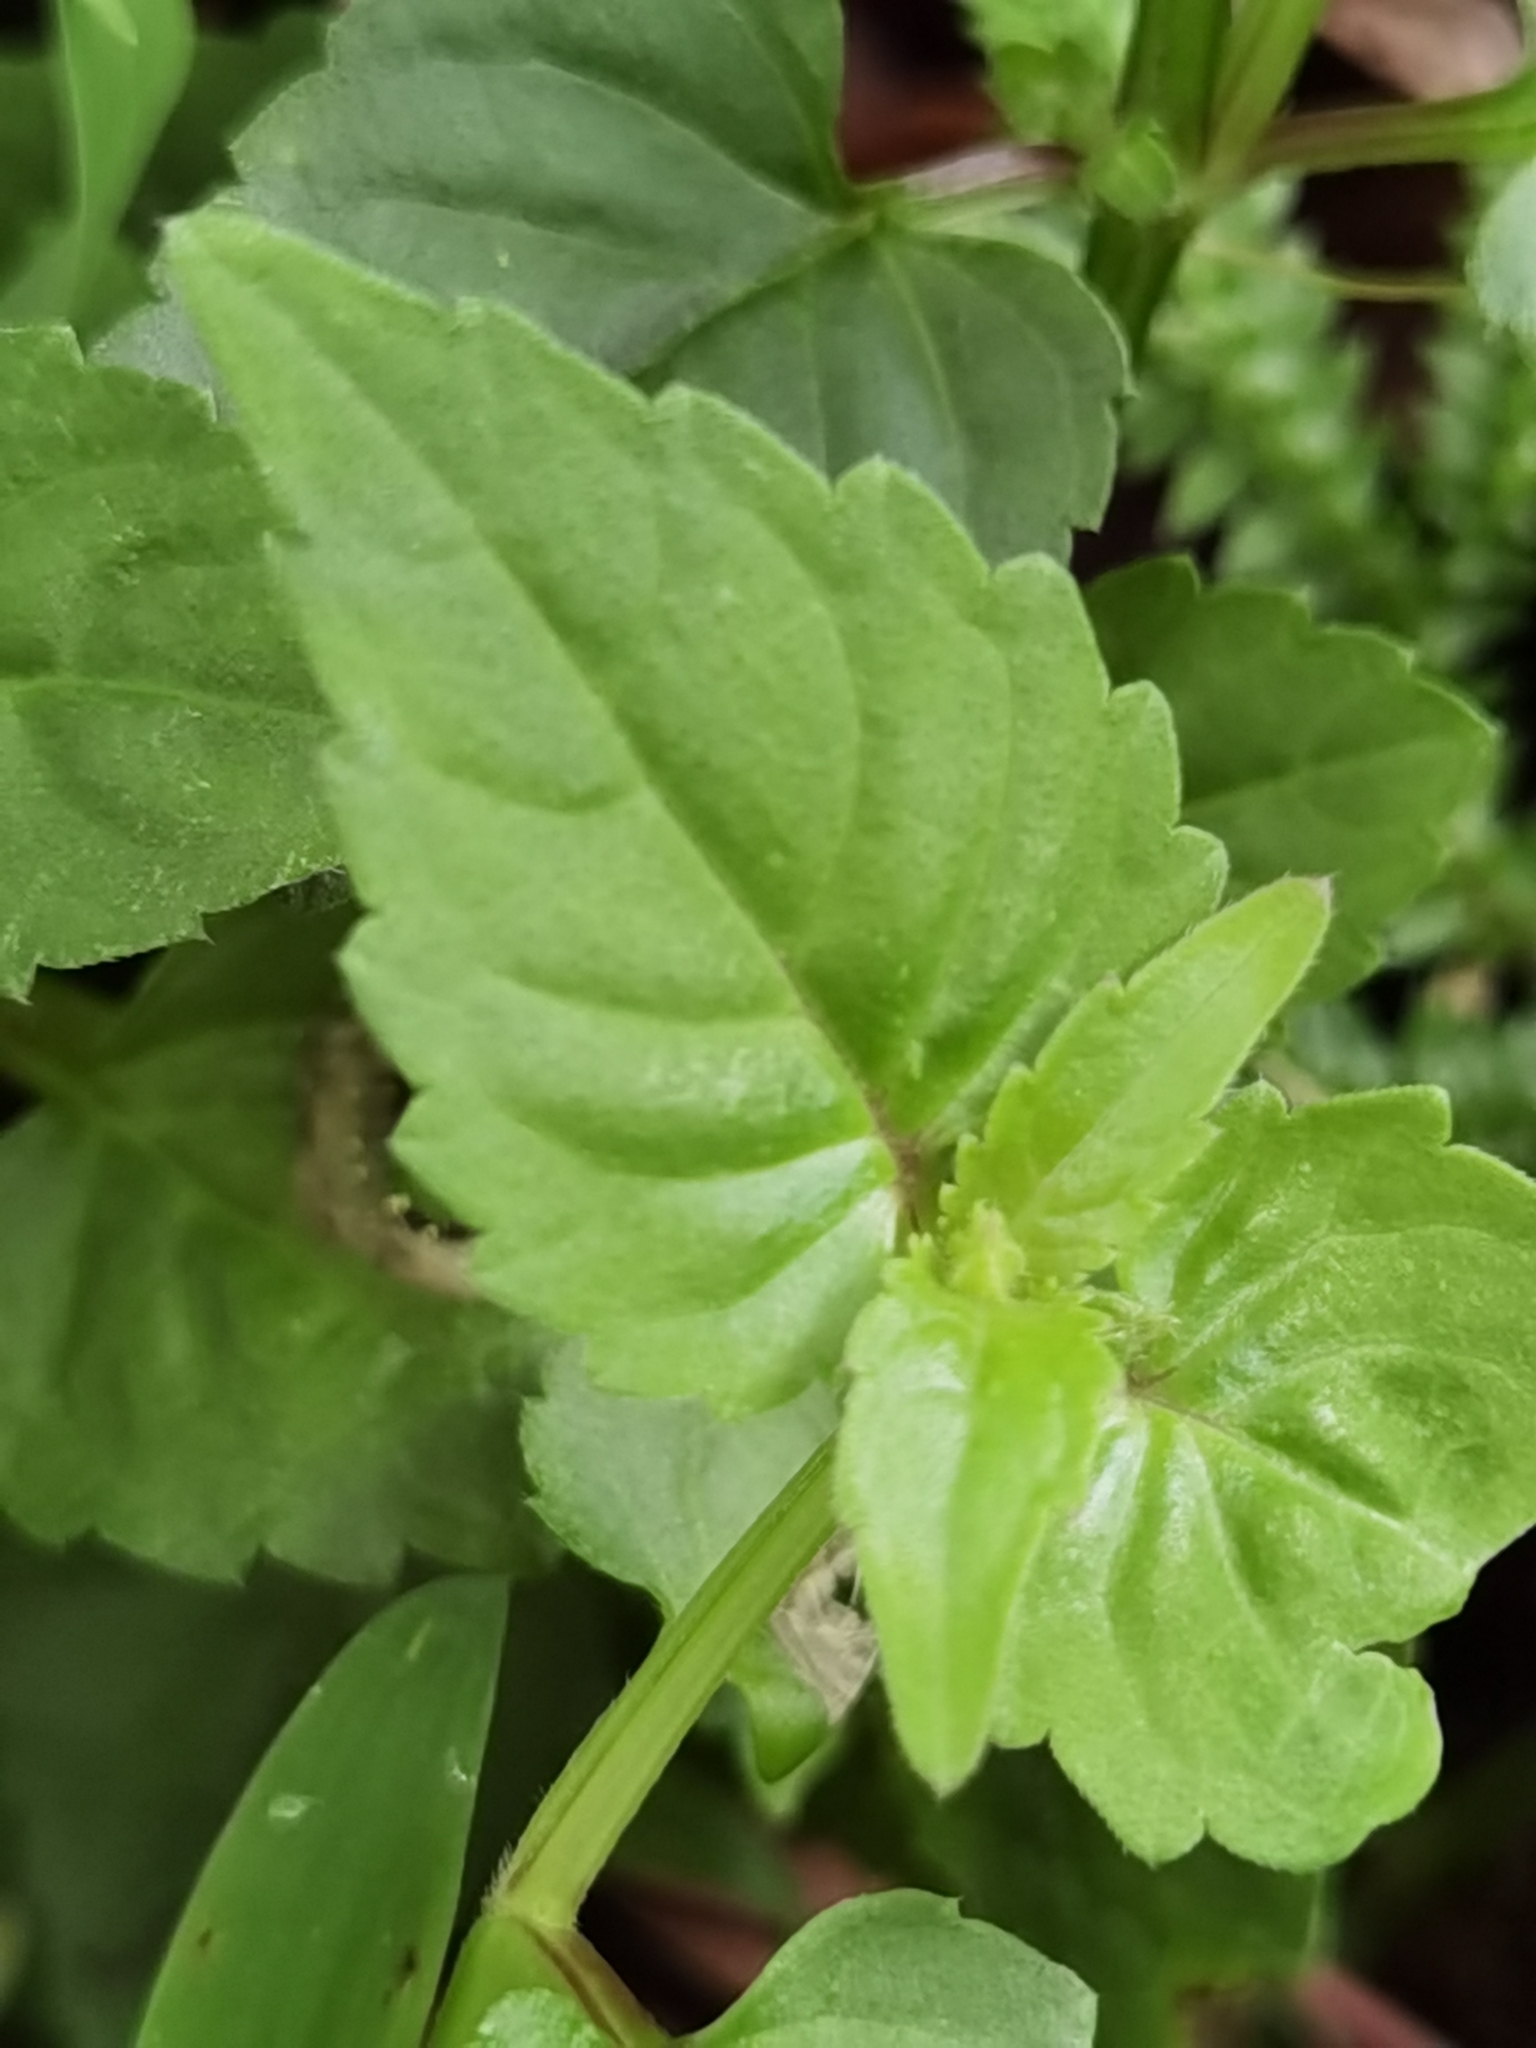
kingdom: Plantae
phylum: Tracheophyta
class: Magnoliopsida
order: Lamiales
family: Linderniaceae
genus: Torenia
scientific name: Torenia fournieri
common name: Bluewings
